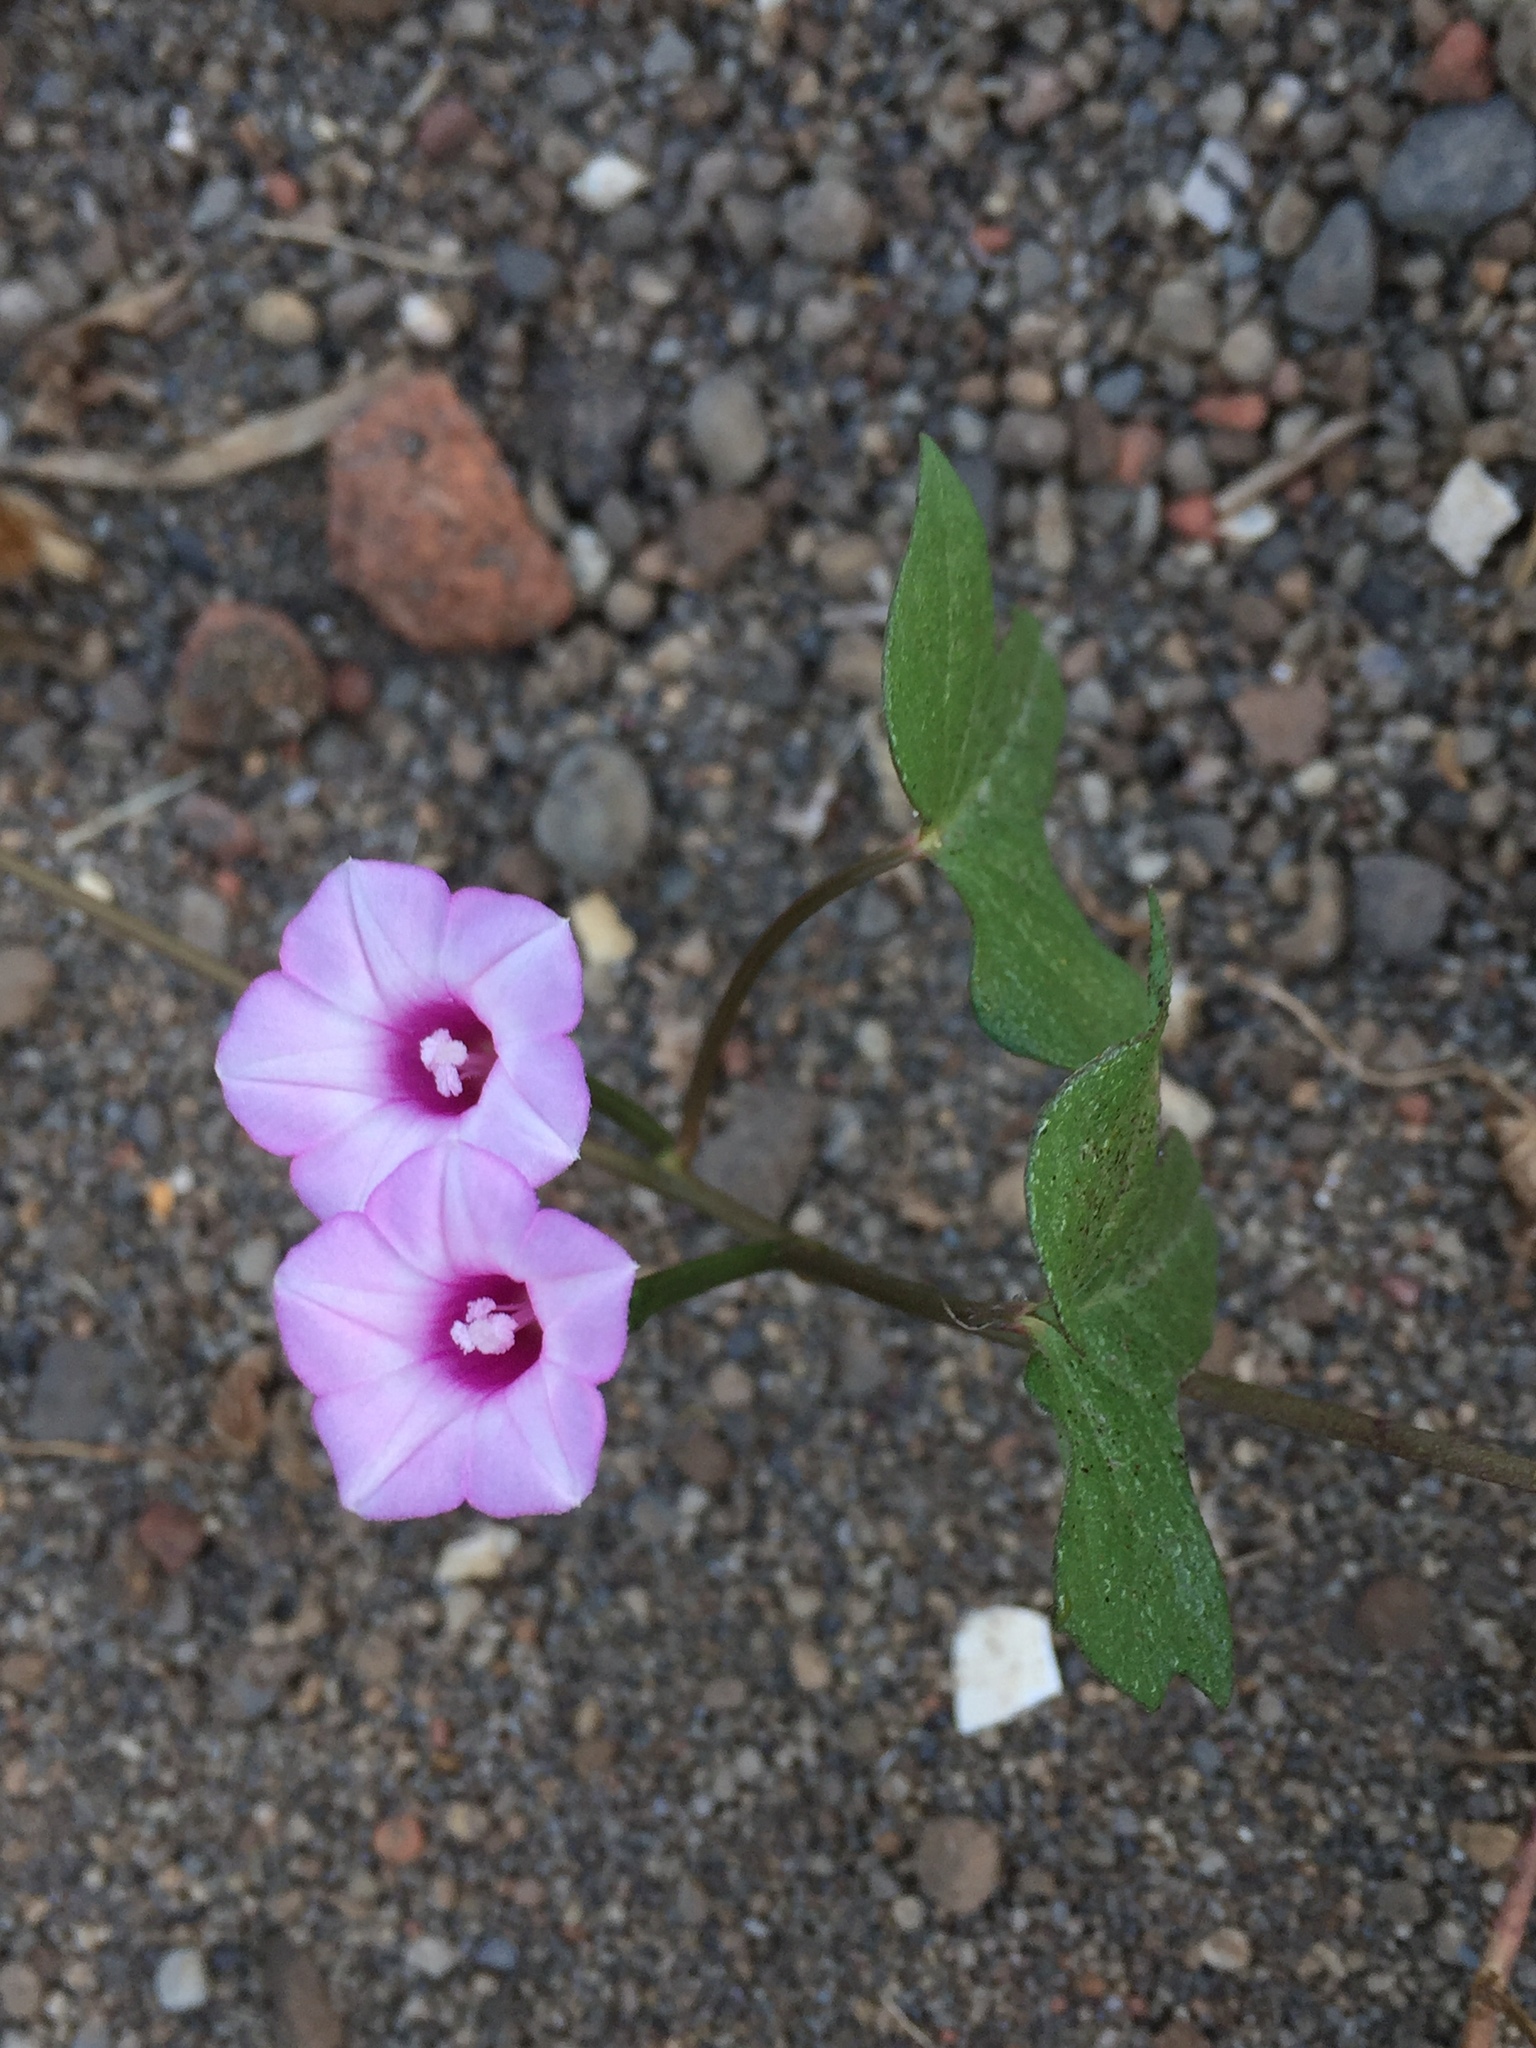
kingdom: Plantae
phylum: Tracheophyta
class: Magnoliopsida
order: Solanales
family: Convolvulaceae
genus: Ipomoea
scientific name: Ipomoea triloba
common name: Little-bell
